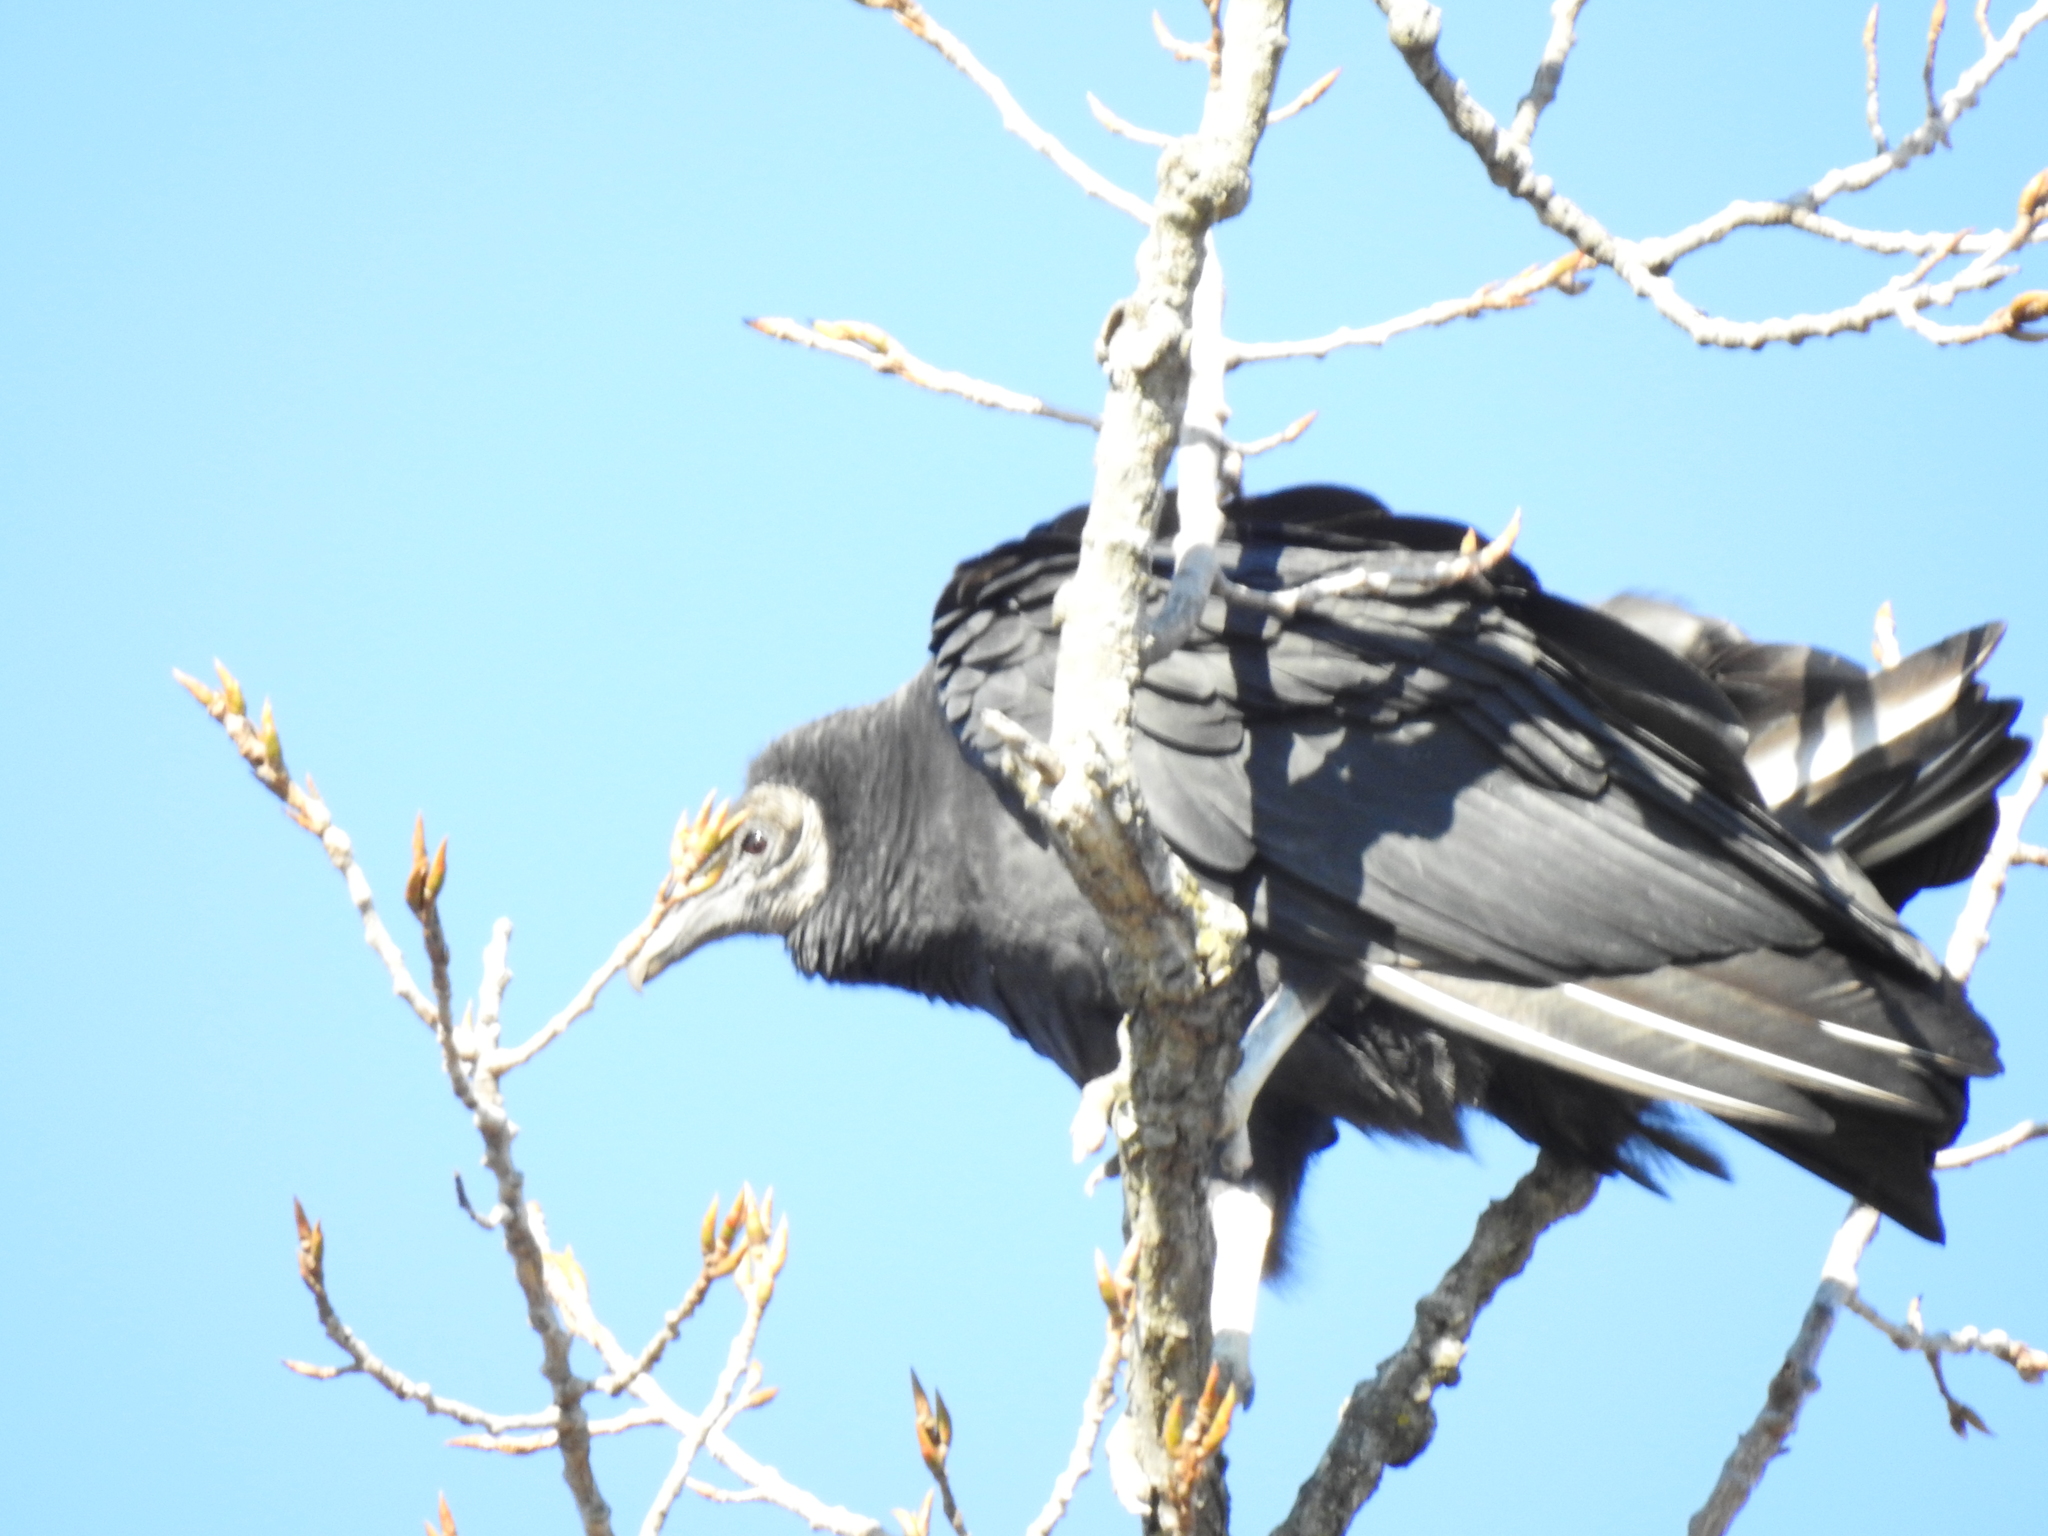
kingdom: Animalia
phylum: Chordata
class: Aves
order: Accipitriformes
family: Cathartidae
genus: Coragyps
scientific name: Coragyps atratus
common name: Black vulture
